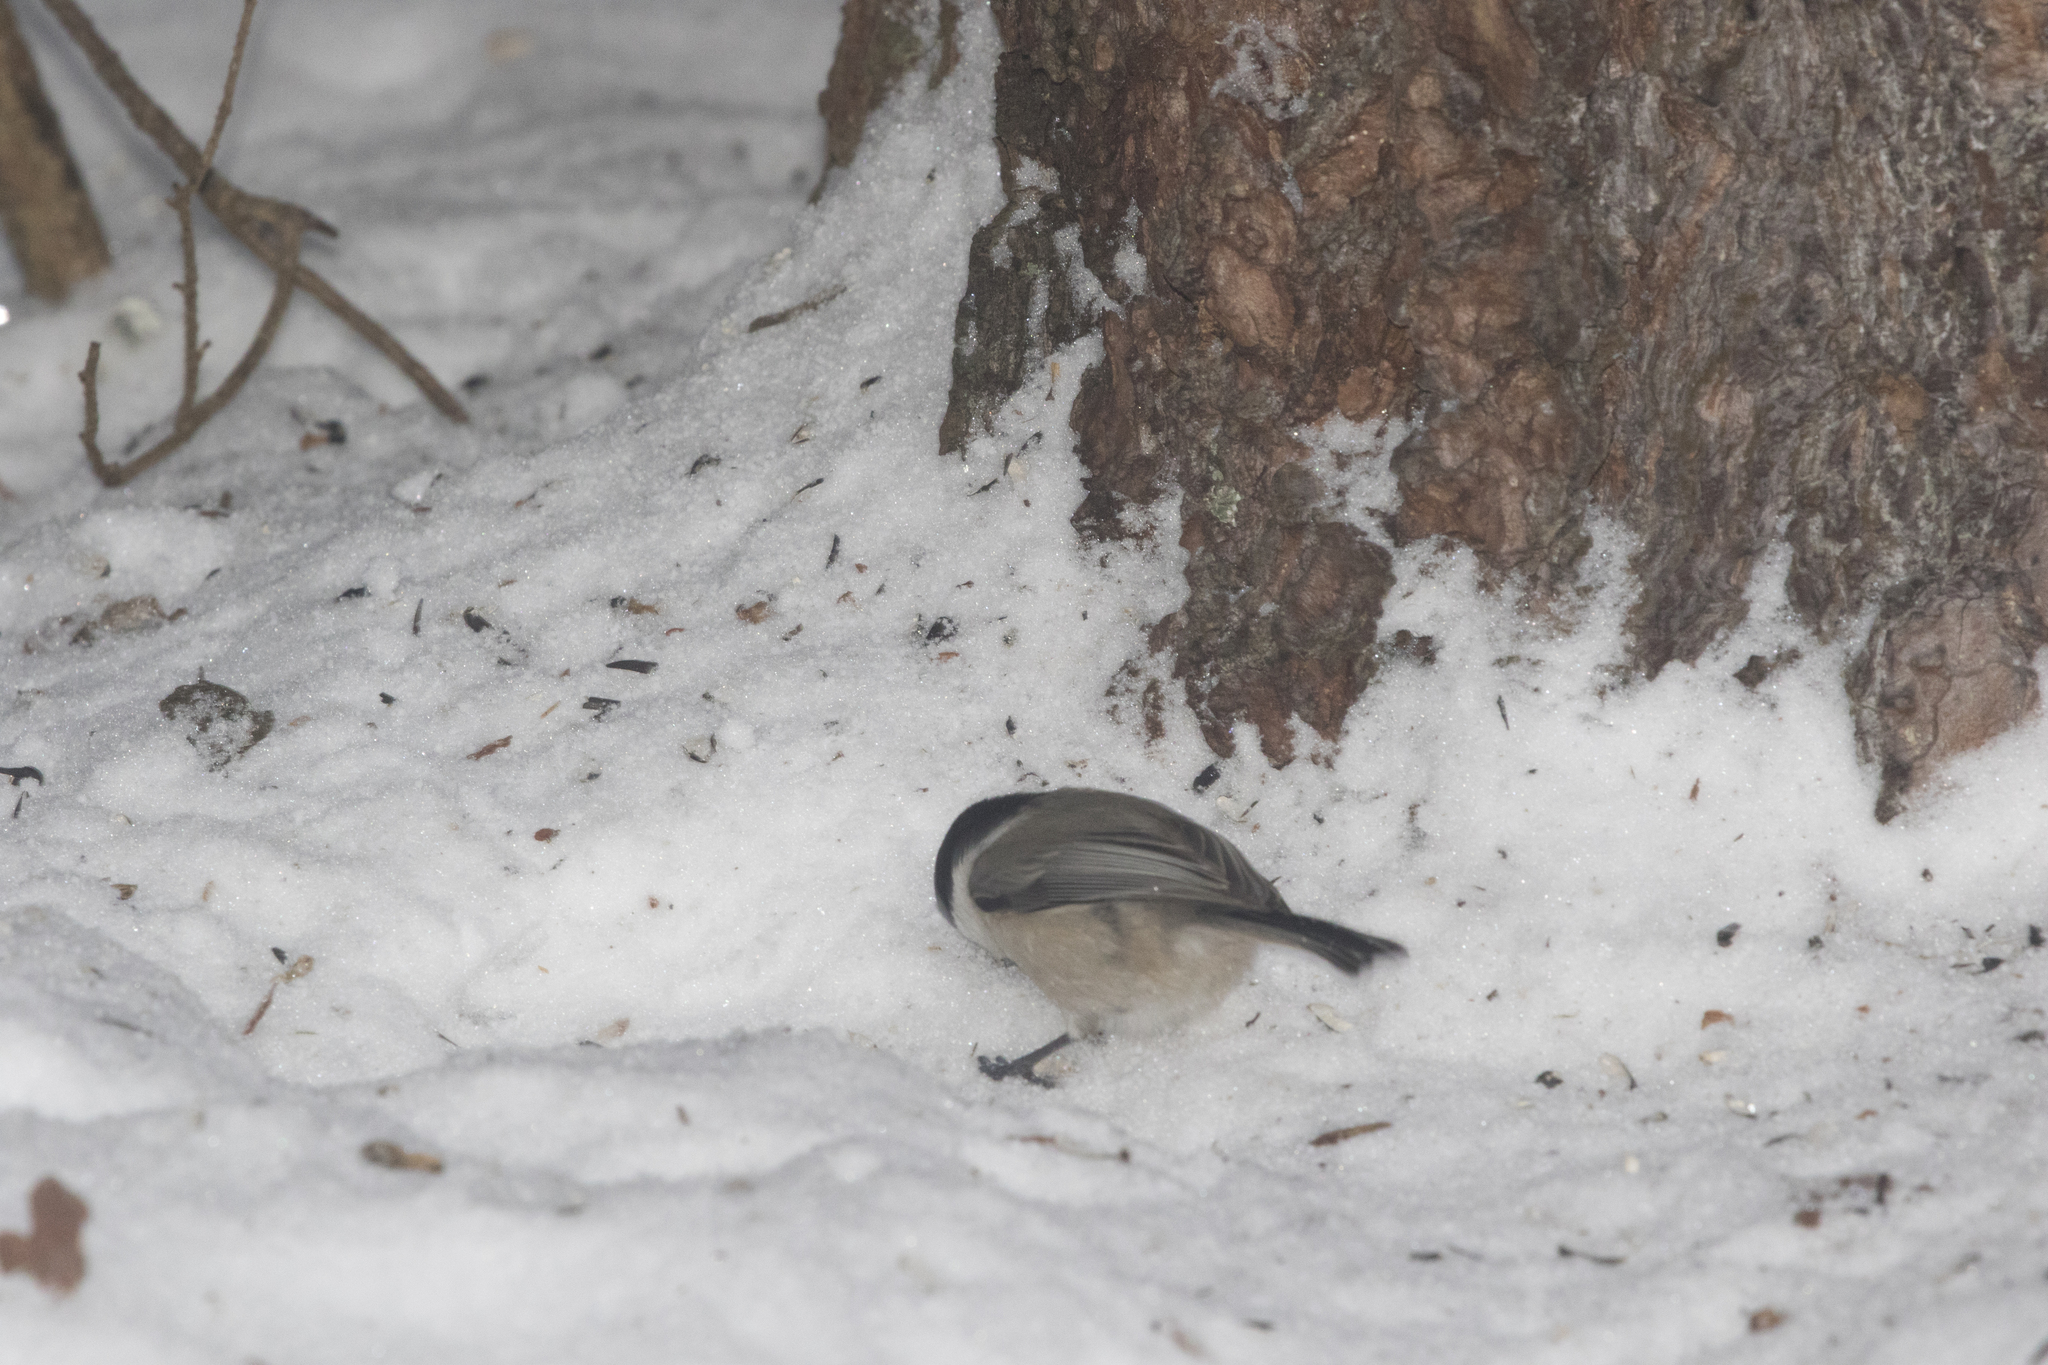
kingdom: Animalia
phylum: Chordata
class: Aves
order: Passeriformes
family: Paridae
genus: Poecile
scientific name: Poecile montanus
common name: Willow tit
